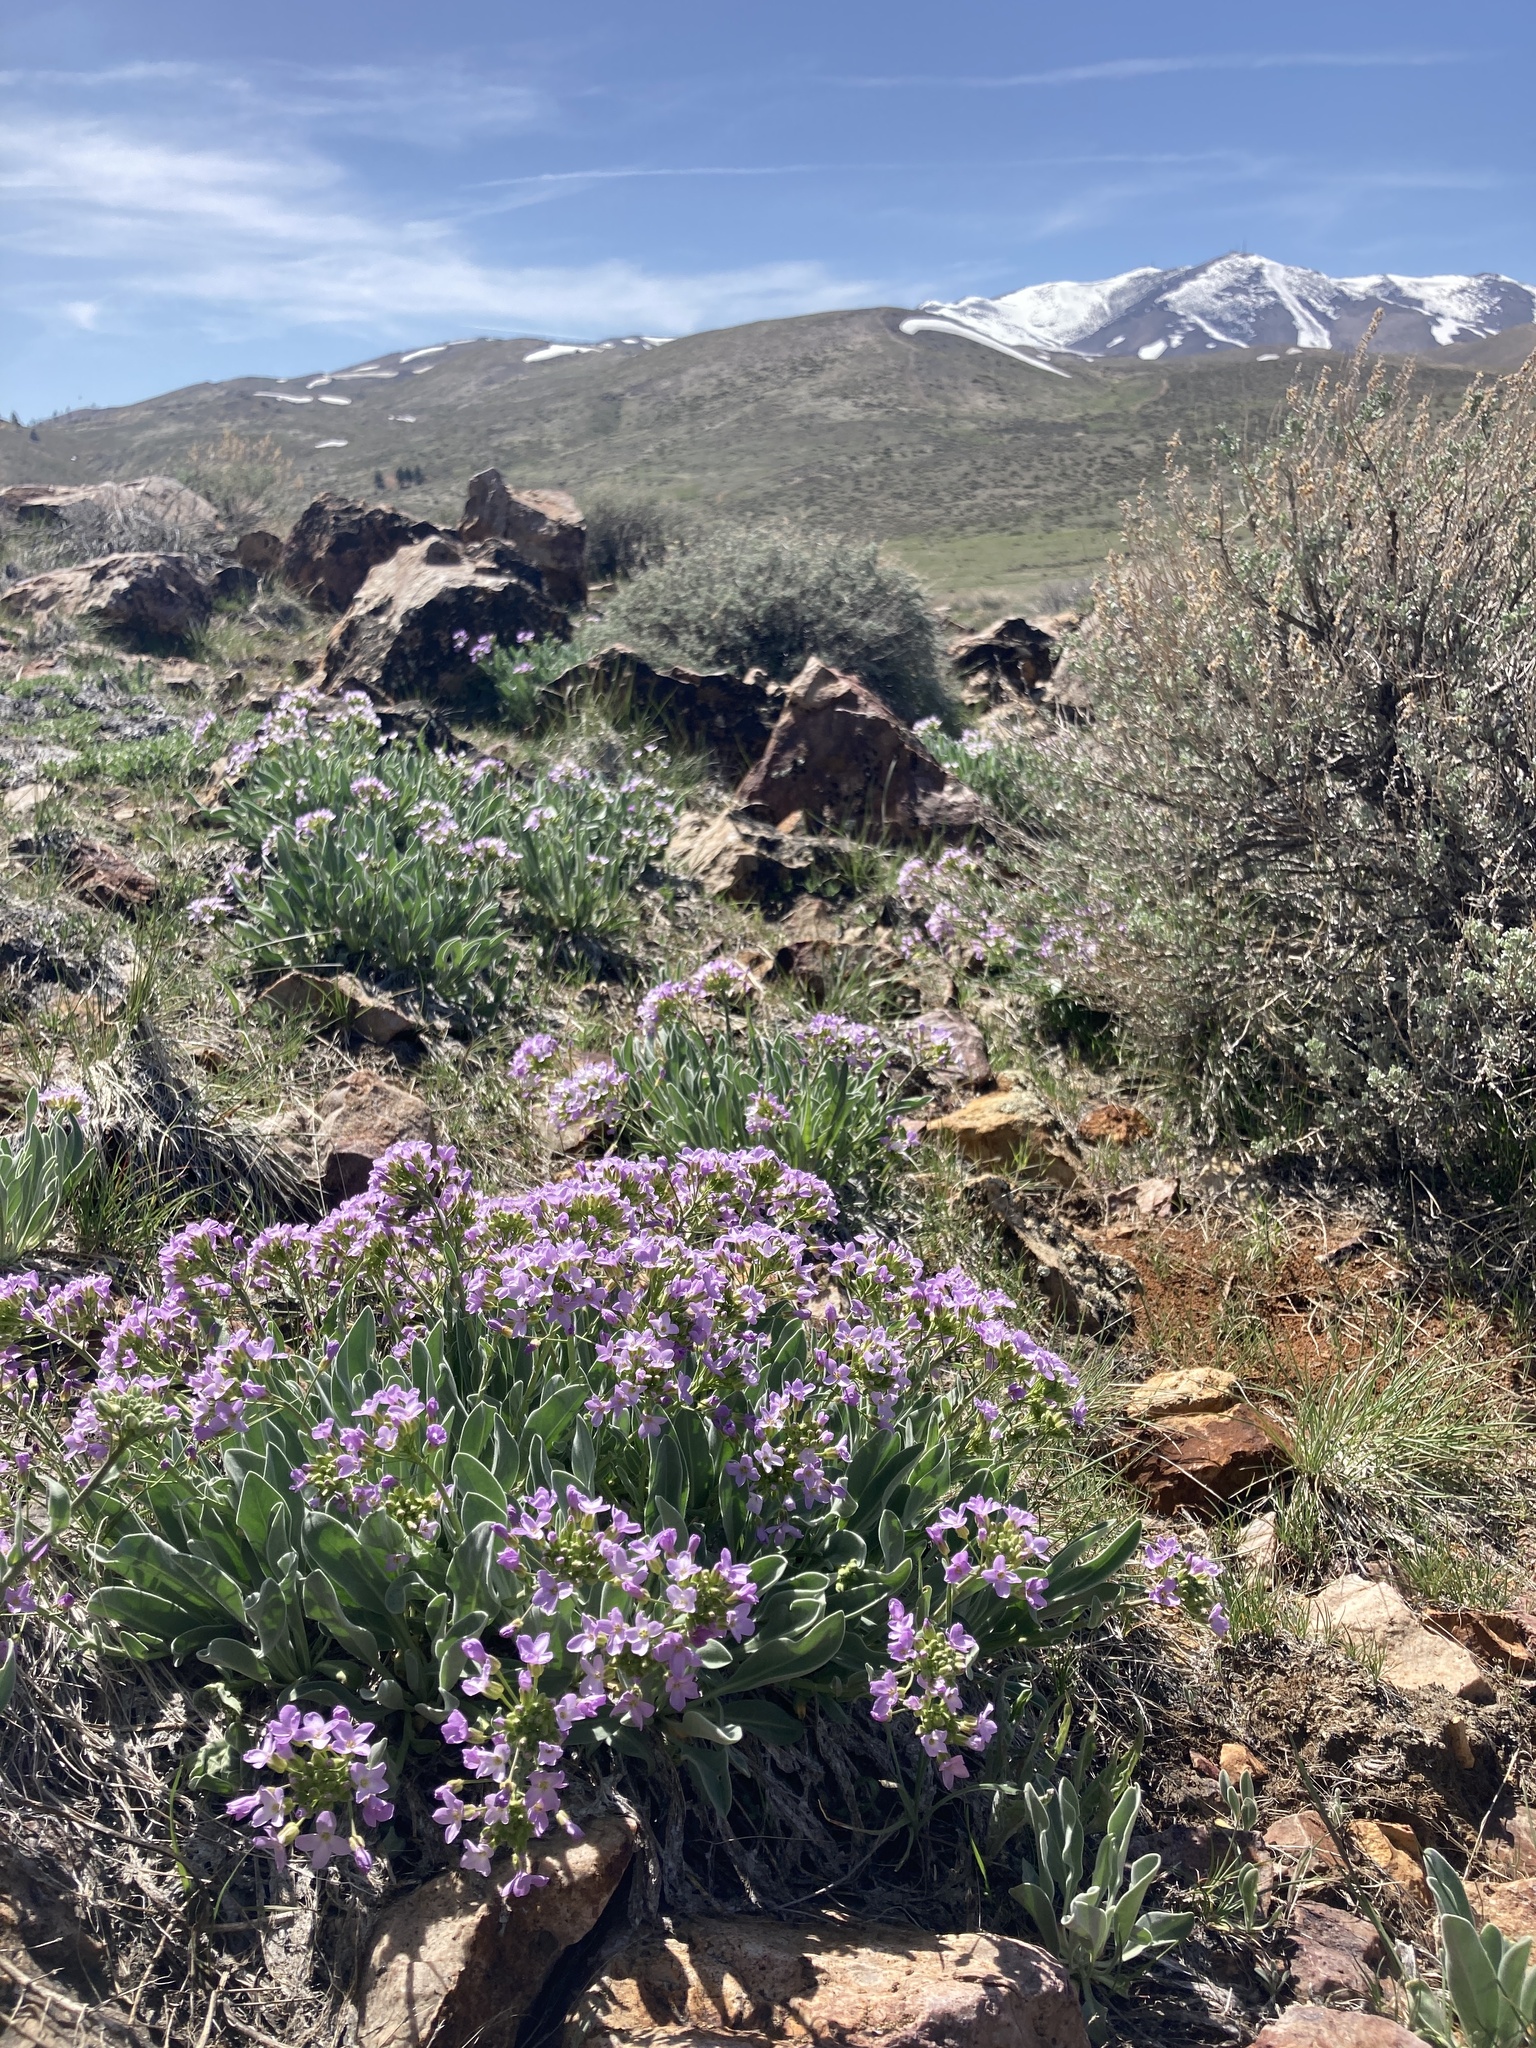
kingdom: Plantae
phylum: Tracheophyta
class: Magnoliopsida
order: Brassicales
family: Brassicaceae
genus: Phoenicaulis
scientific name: Phoenicaulis cheiranthoides
